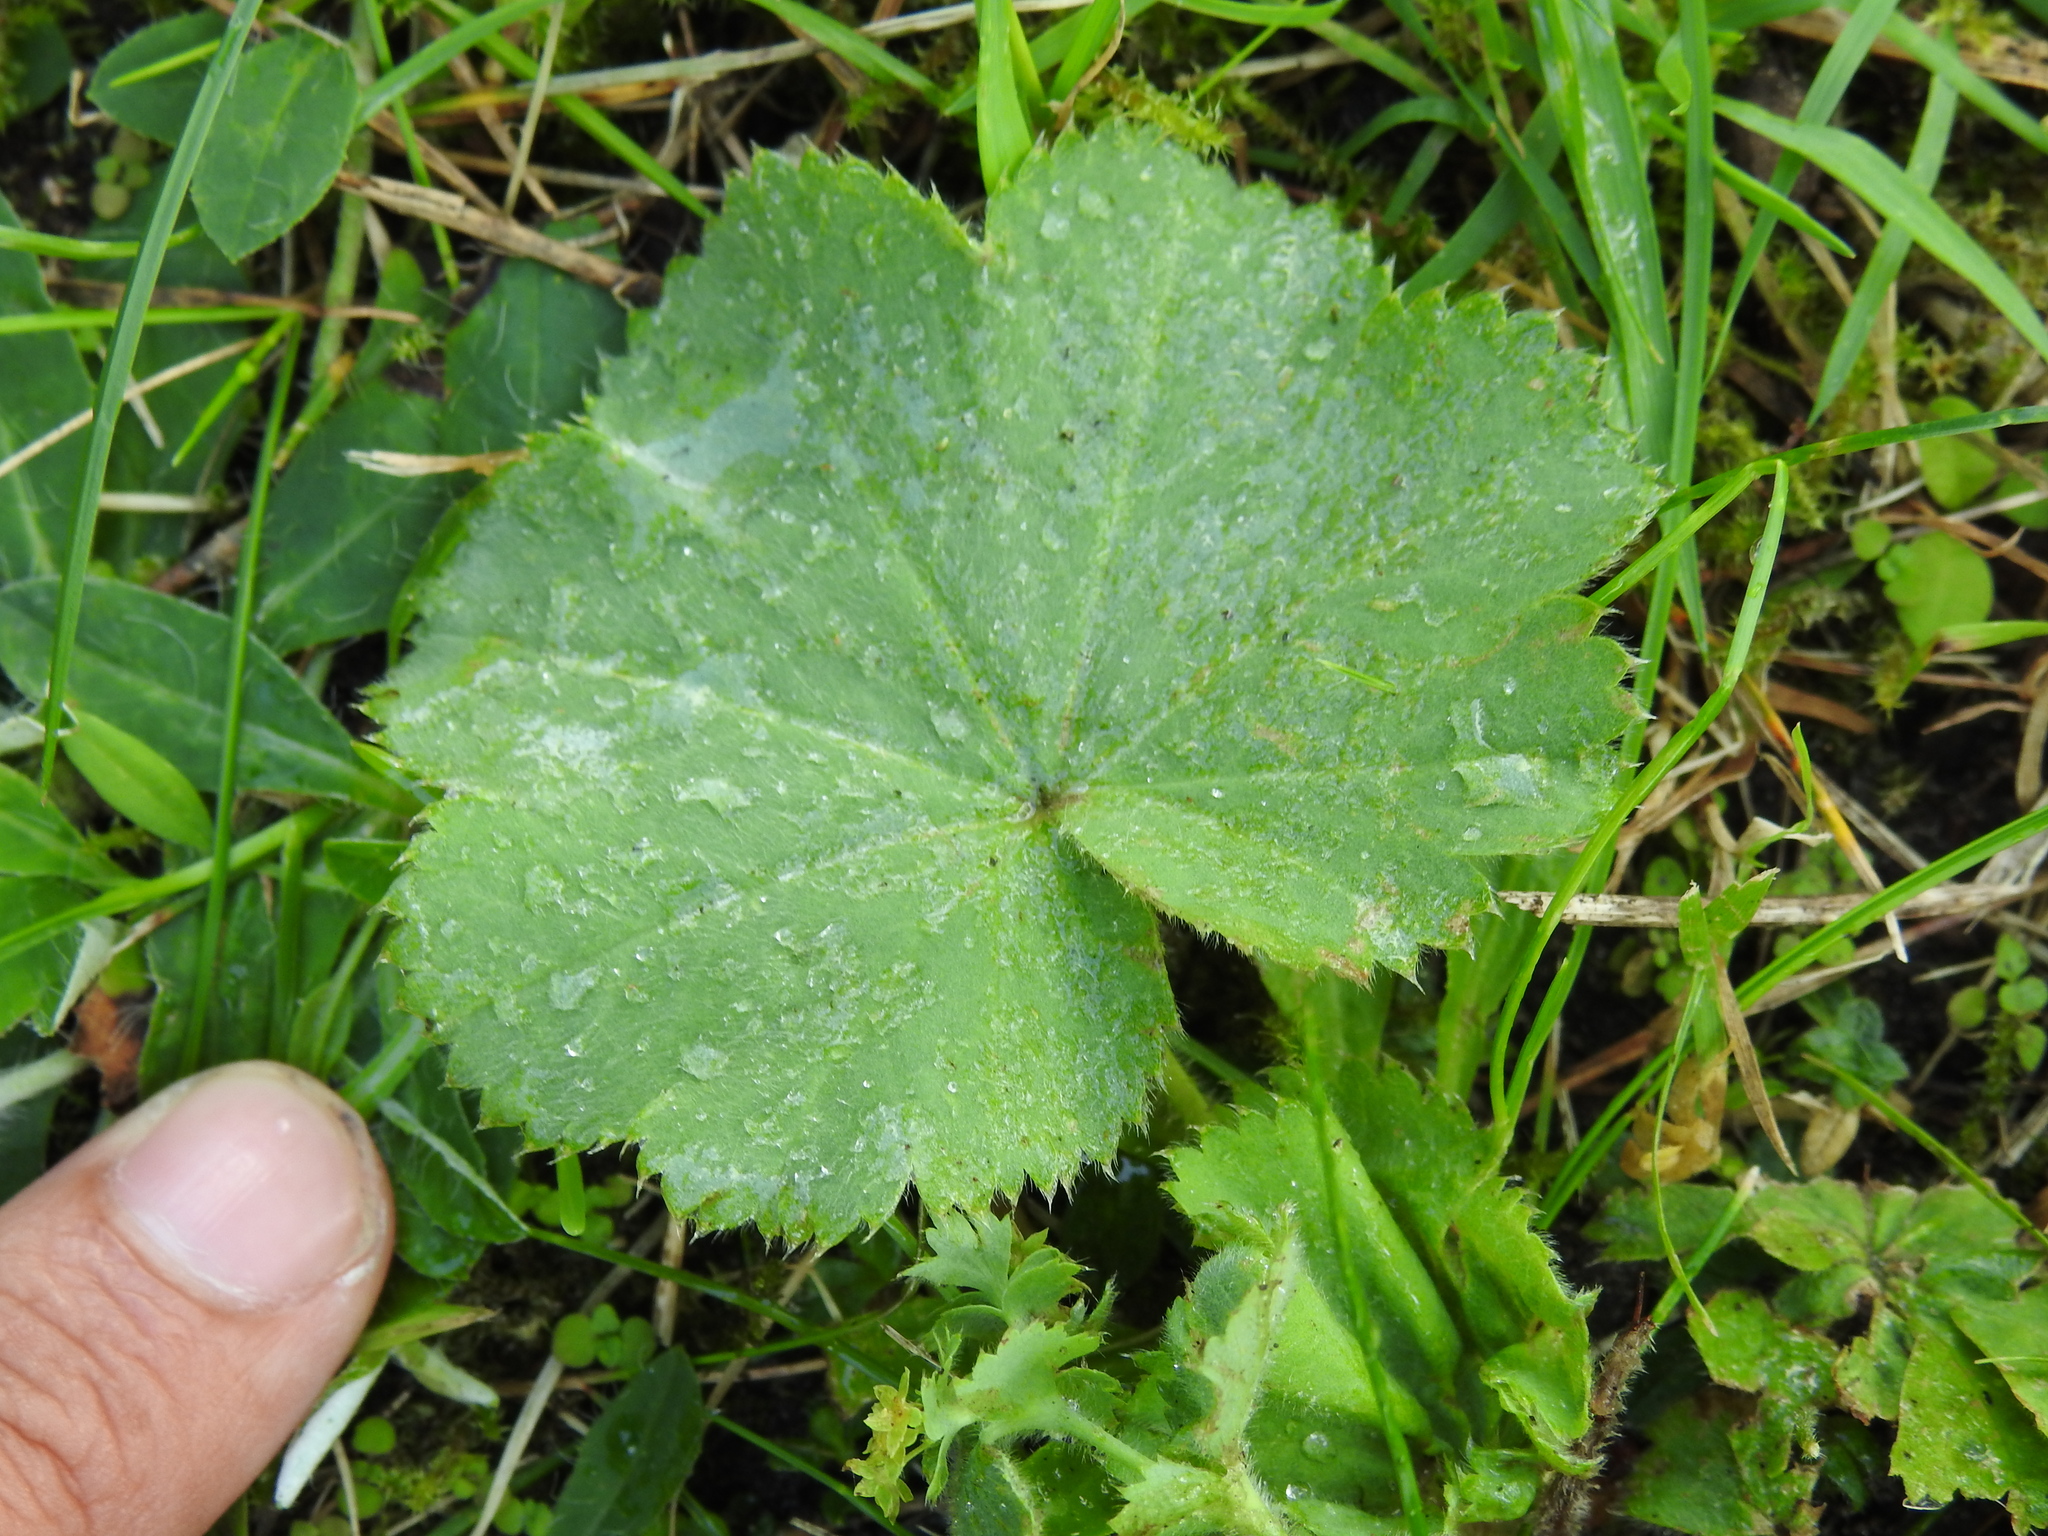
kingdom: Plantae
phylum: Tracheophyta
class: Magnoliopsida
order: Rosales
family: Rosaceae
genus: Alchemilla
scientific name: Alchemilla mollis
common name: Lady's-mantle
